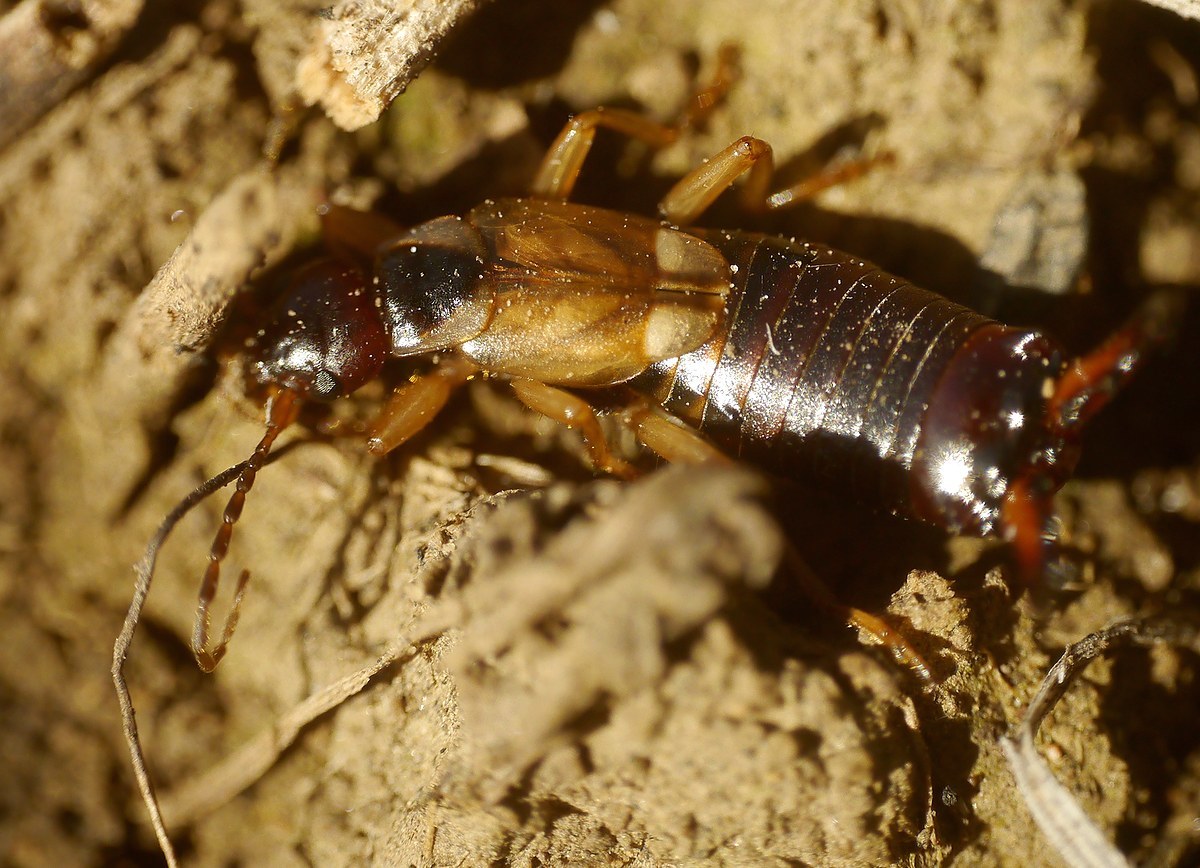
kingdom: Animalia
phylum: Arthropoda
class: Insecta
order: Dermaptera
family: Forficulidae
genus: Forficula
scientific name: Forficula
